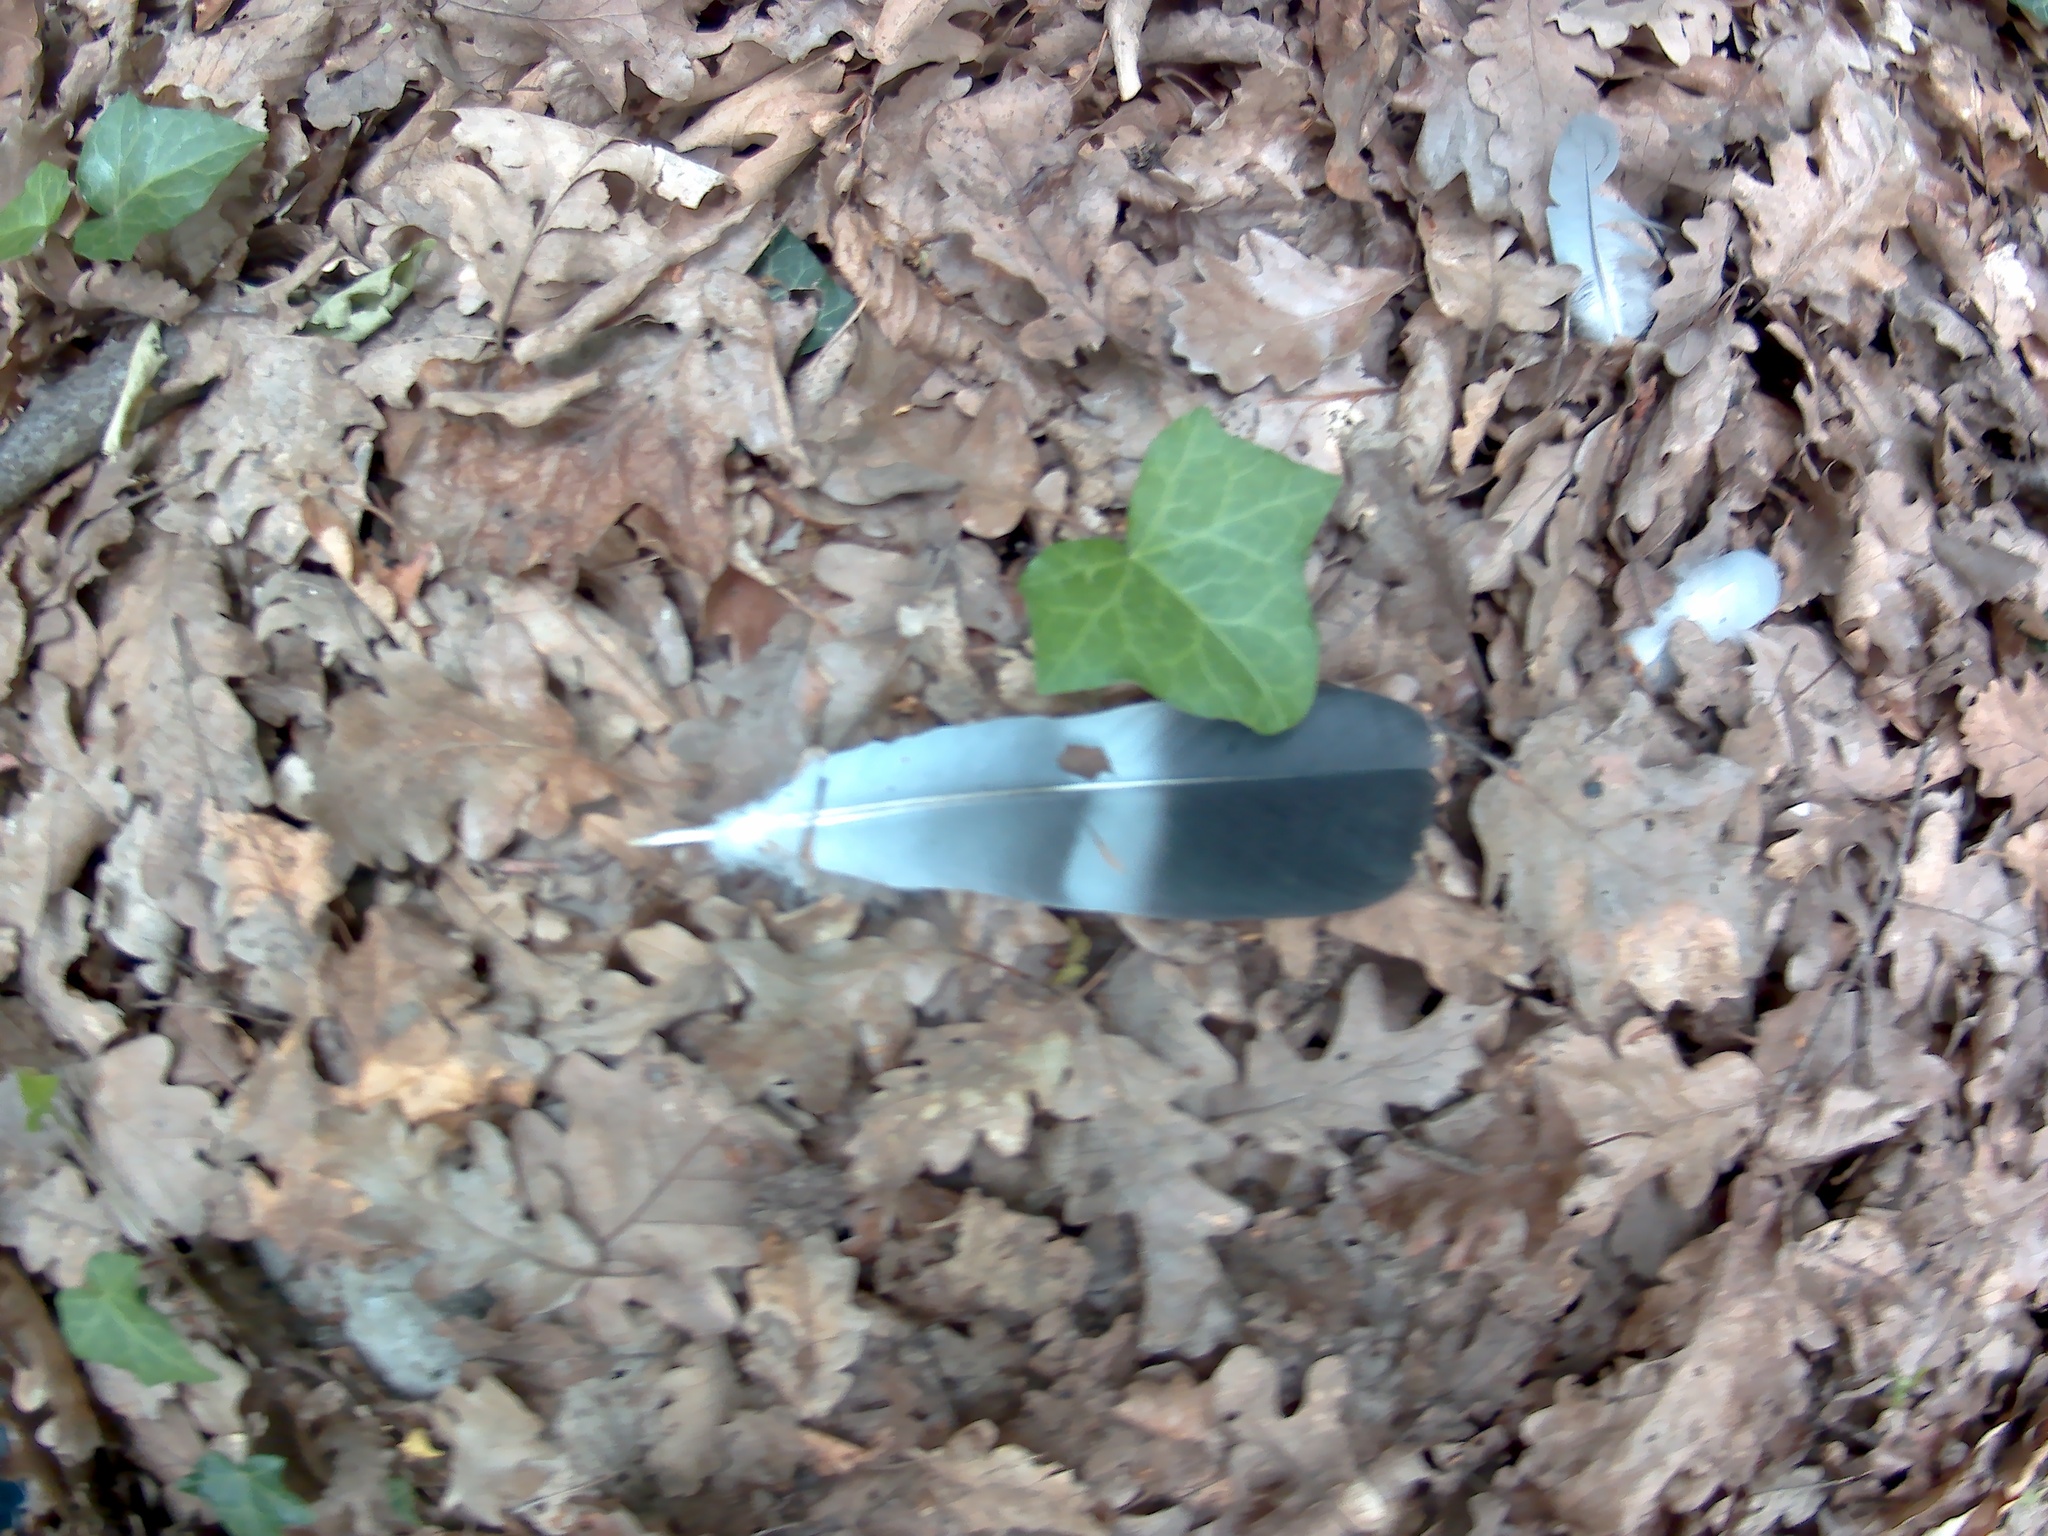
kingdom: Animalia
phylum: Chordata
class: Aves
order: Columbiformes
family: Columbidae
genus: Columba
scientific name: Columba palumbus
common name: Common wood pigeon
